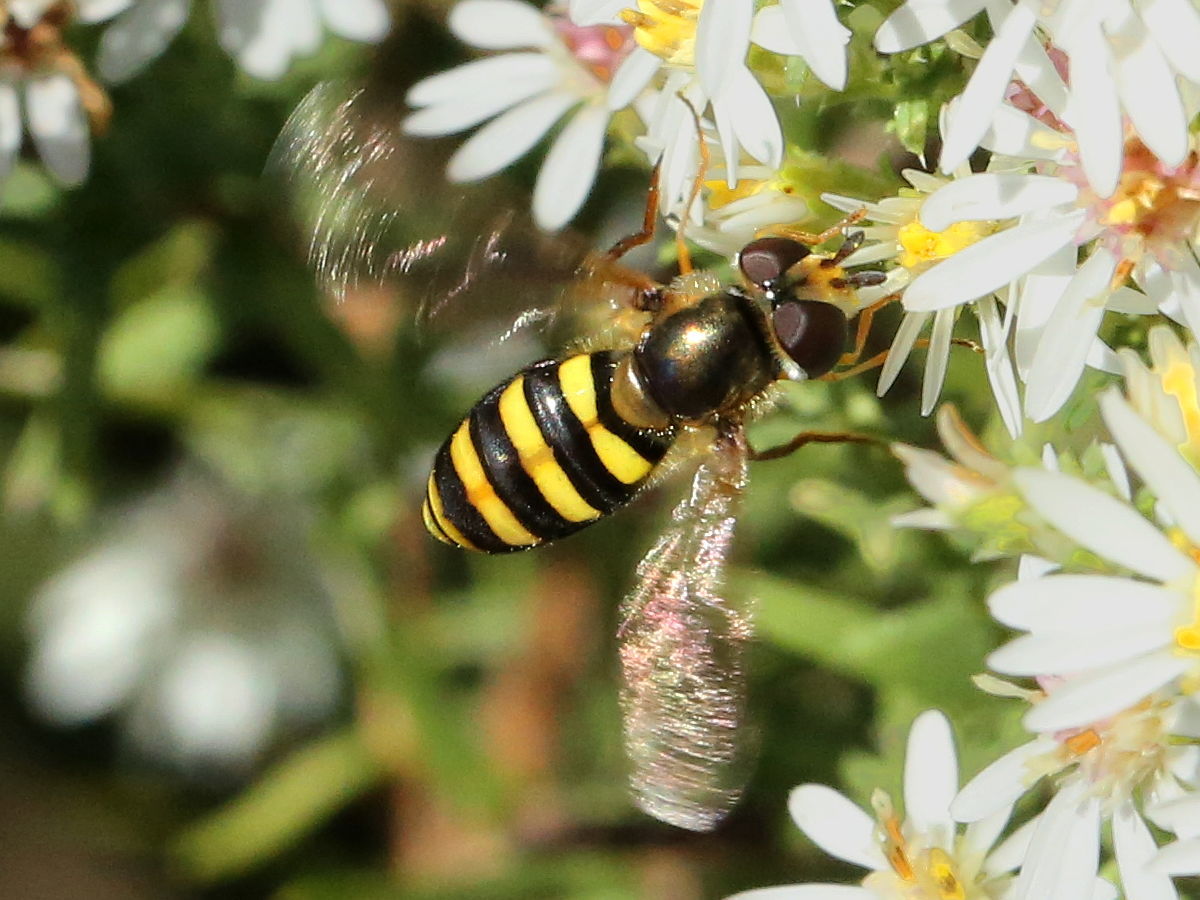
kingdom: Animalia
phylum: Arthropoda
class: Insecta
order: Diptera
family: Syrphidae
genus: Eupeodes
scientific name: Eupeodes
